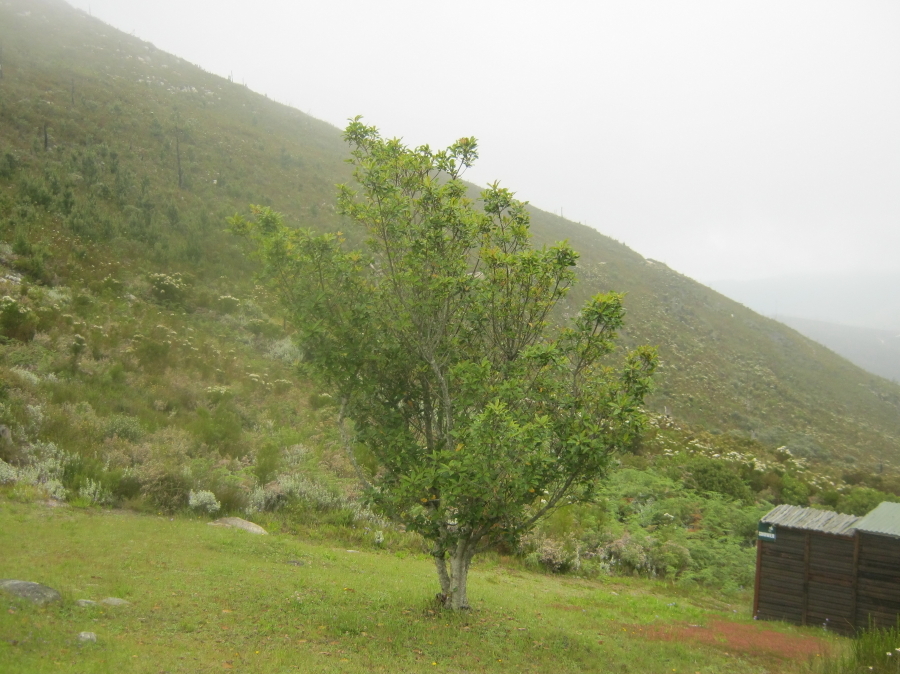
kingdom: Plantae
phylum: Tracheophyta
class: Magnoliopsida
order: Ericales
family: Primulaceae
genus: Myrsine
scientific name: Myrsine melanophloeos
